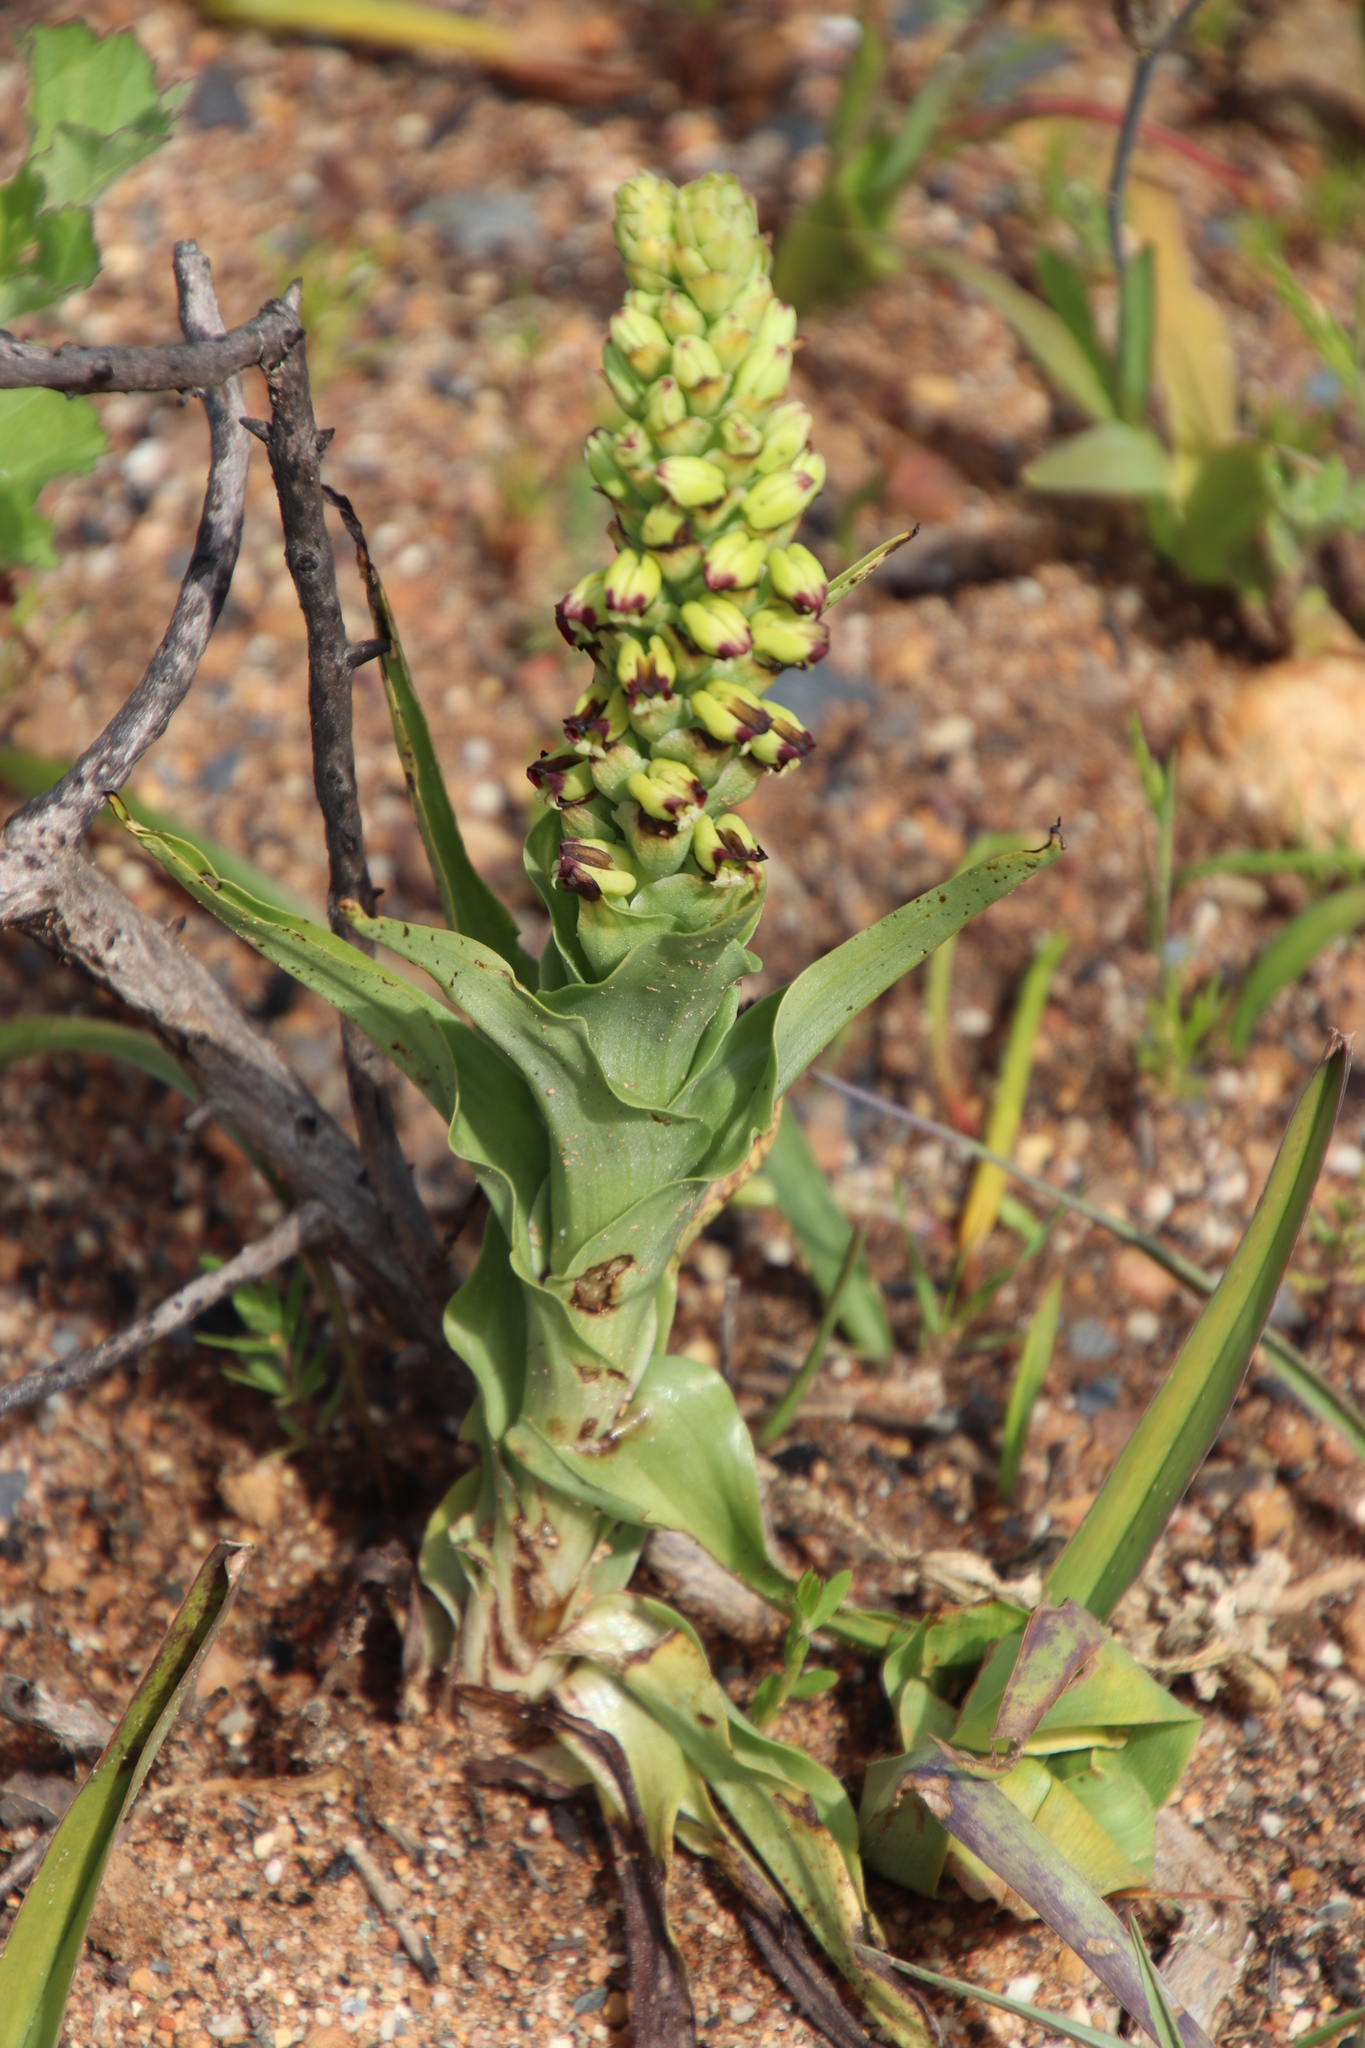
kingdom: Plantae
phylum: Tracheophyta
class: Liliopsida
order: Asparagales
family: Orchidaceae
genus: Corycium
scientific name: Corycium orobanchoides
